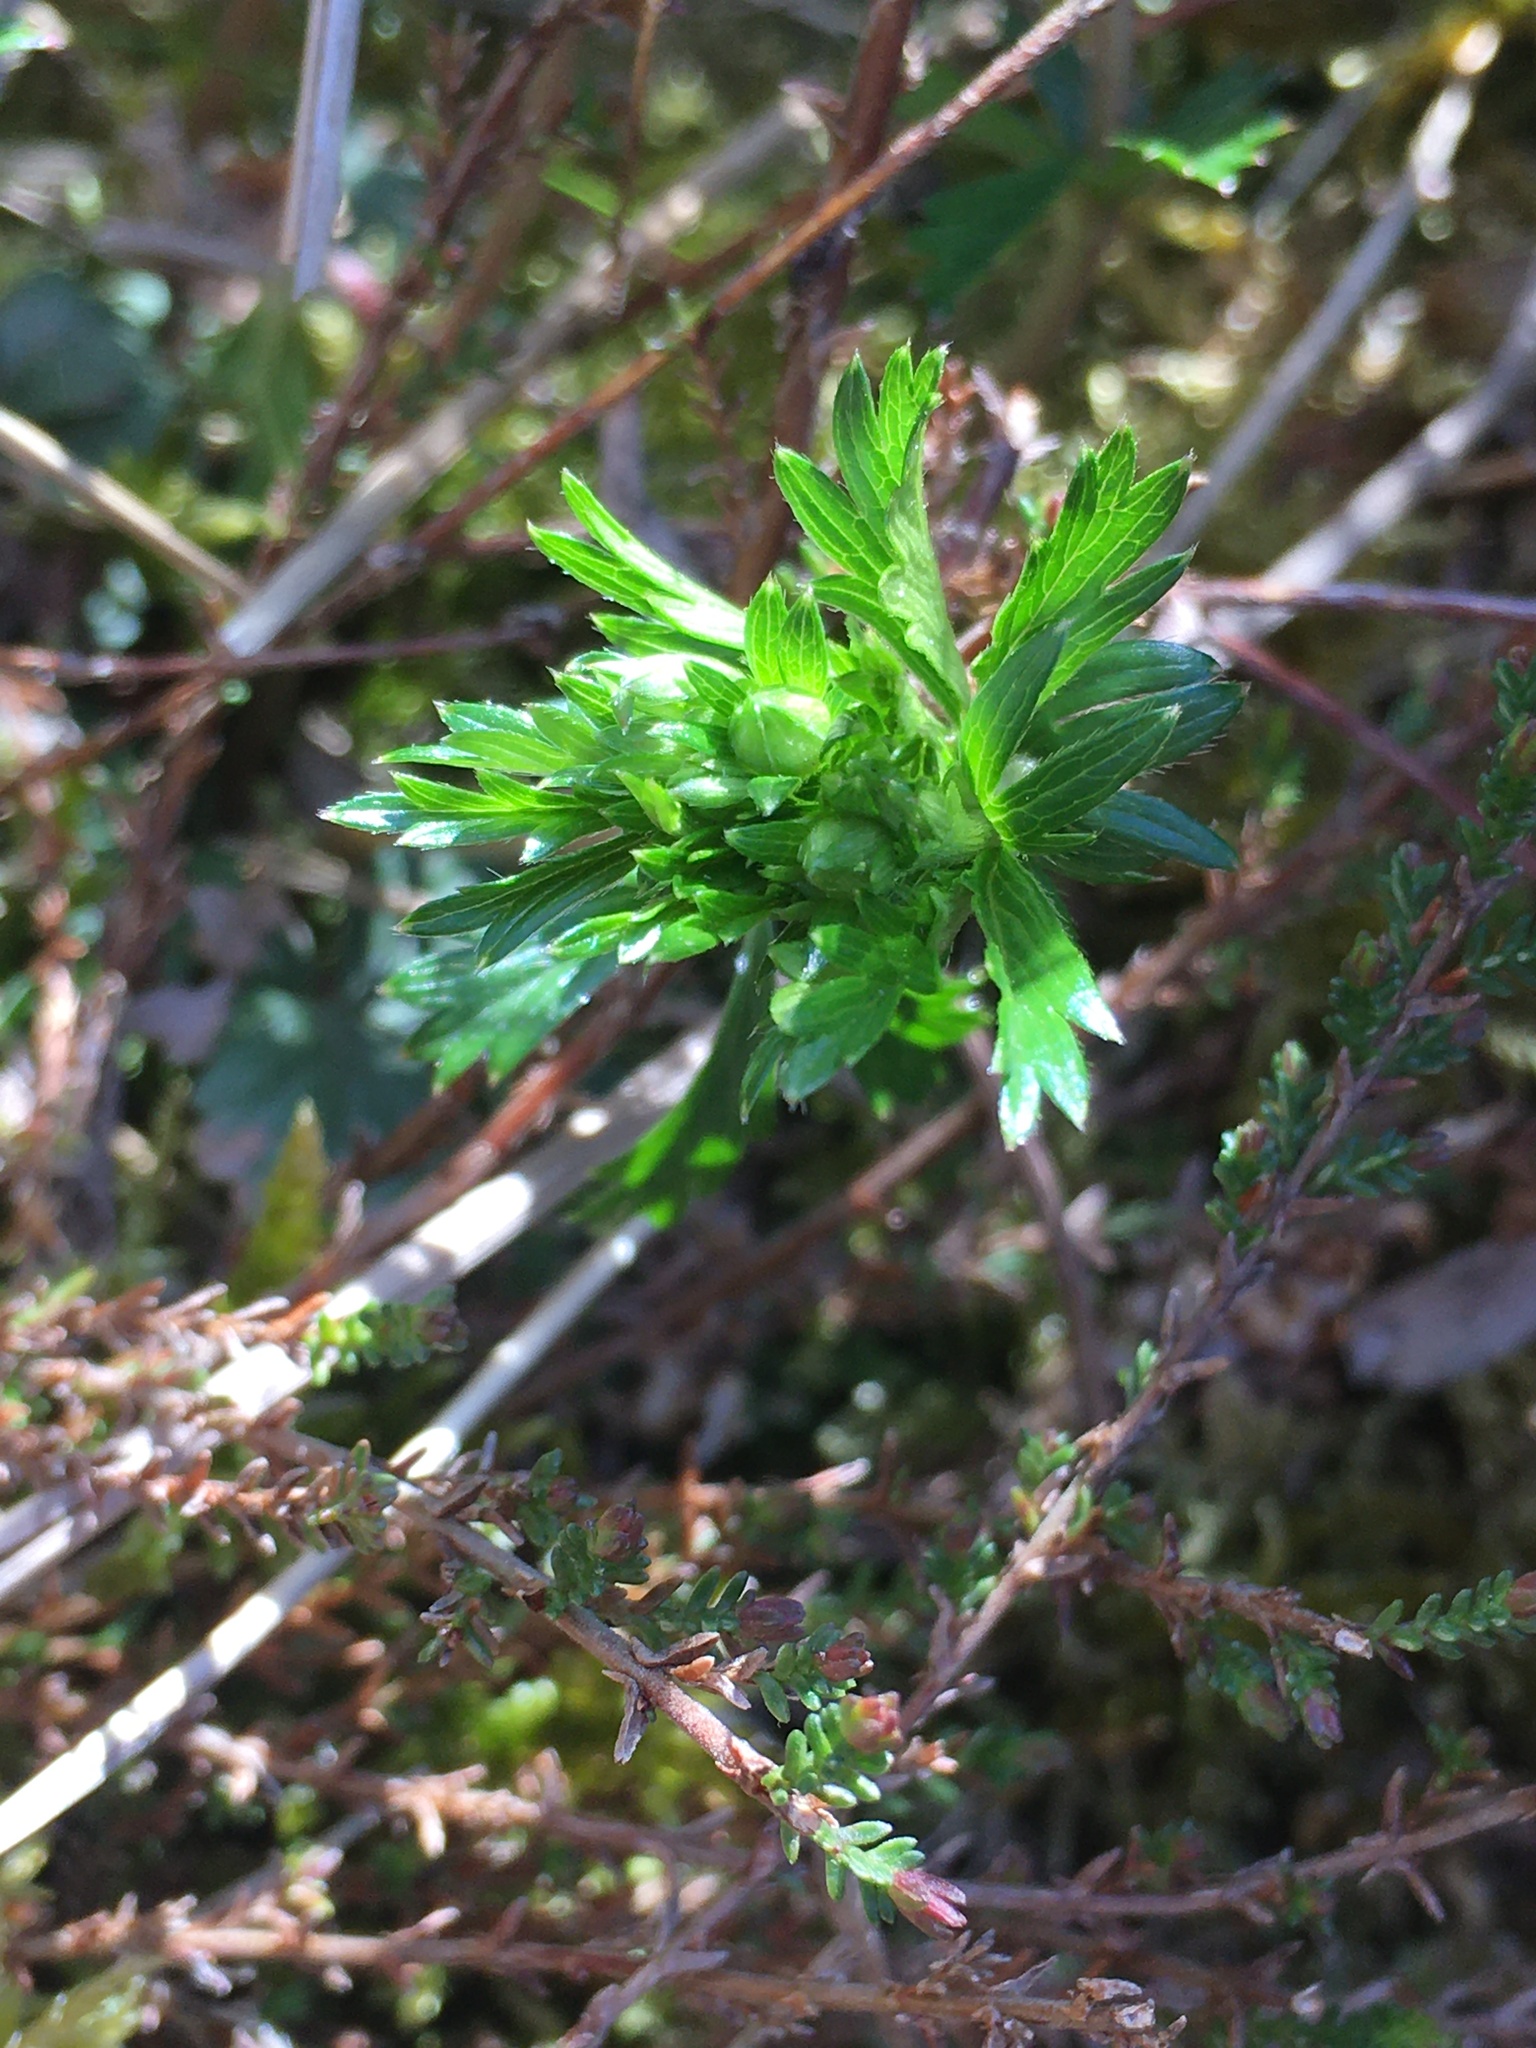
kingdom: Plantae
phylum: Tracheophyta
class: Magnoliopsida
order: Rosales
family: Rosaceae
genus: Potentilla
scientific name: Potentilla erecta
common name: Tormentil
